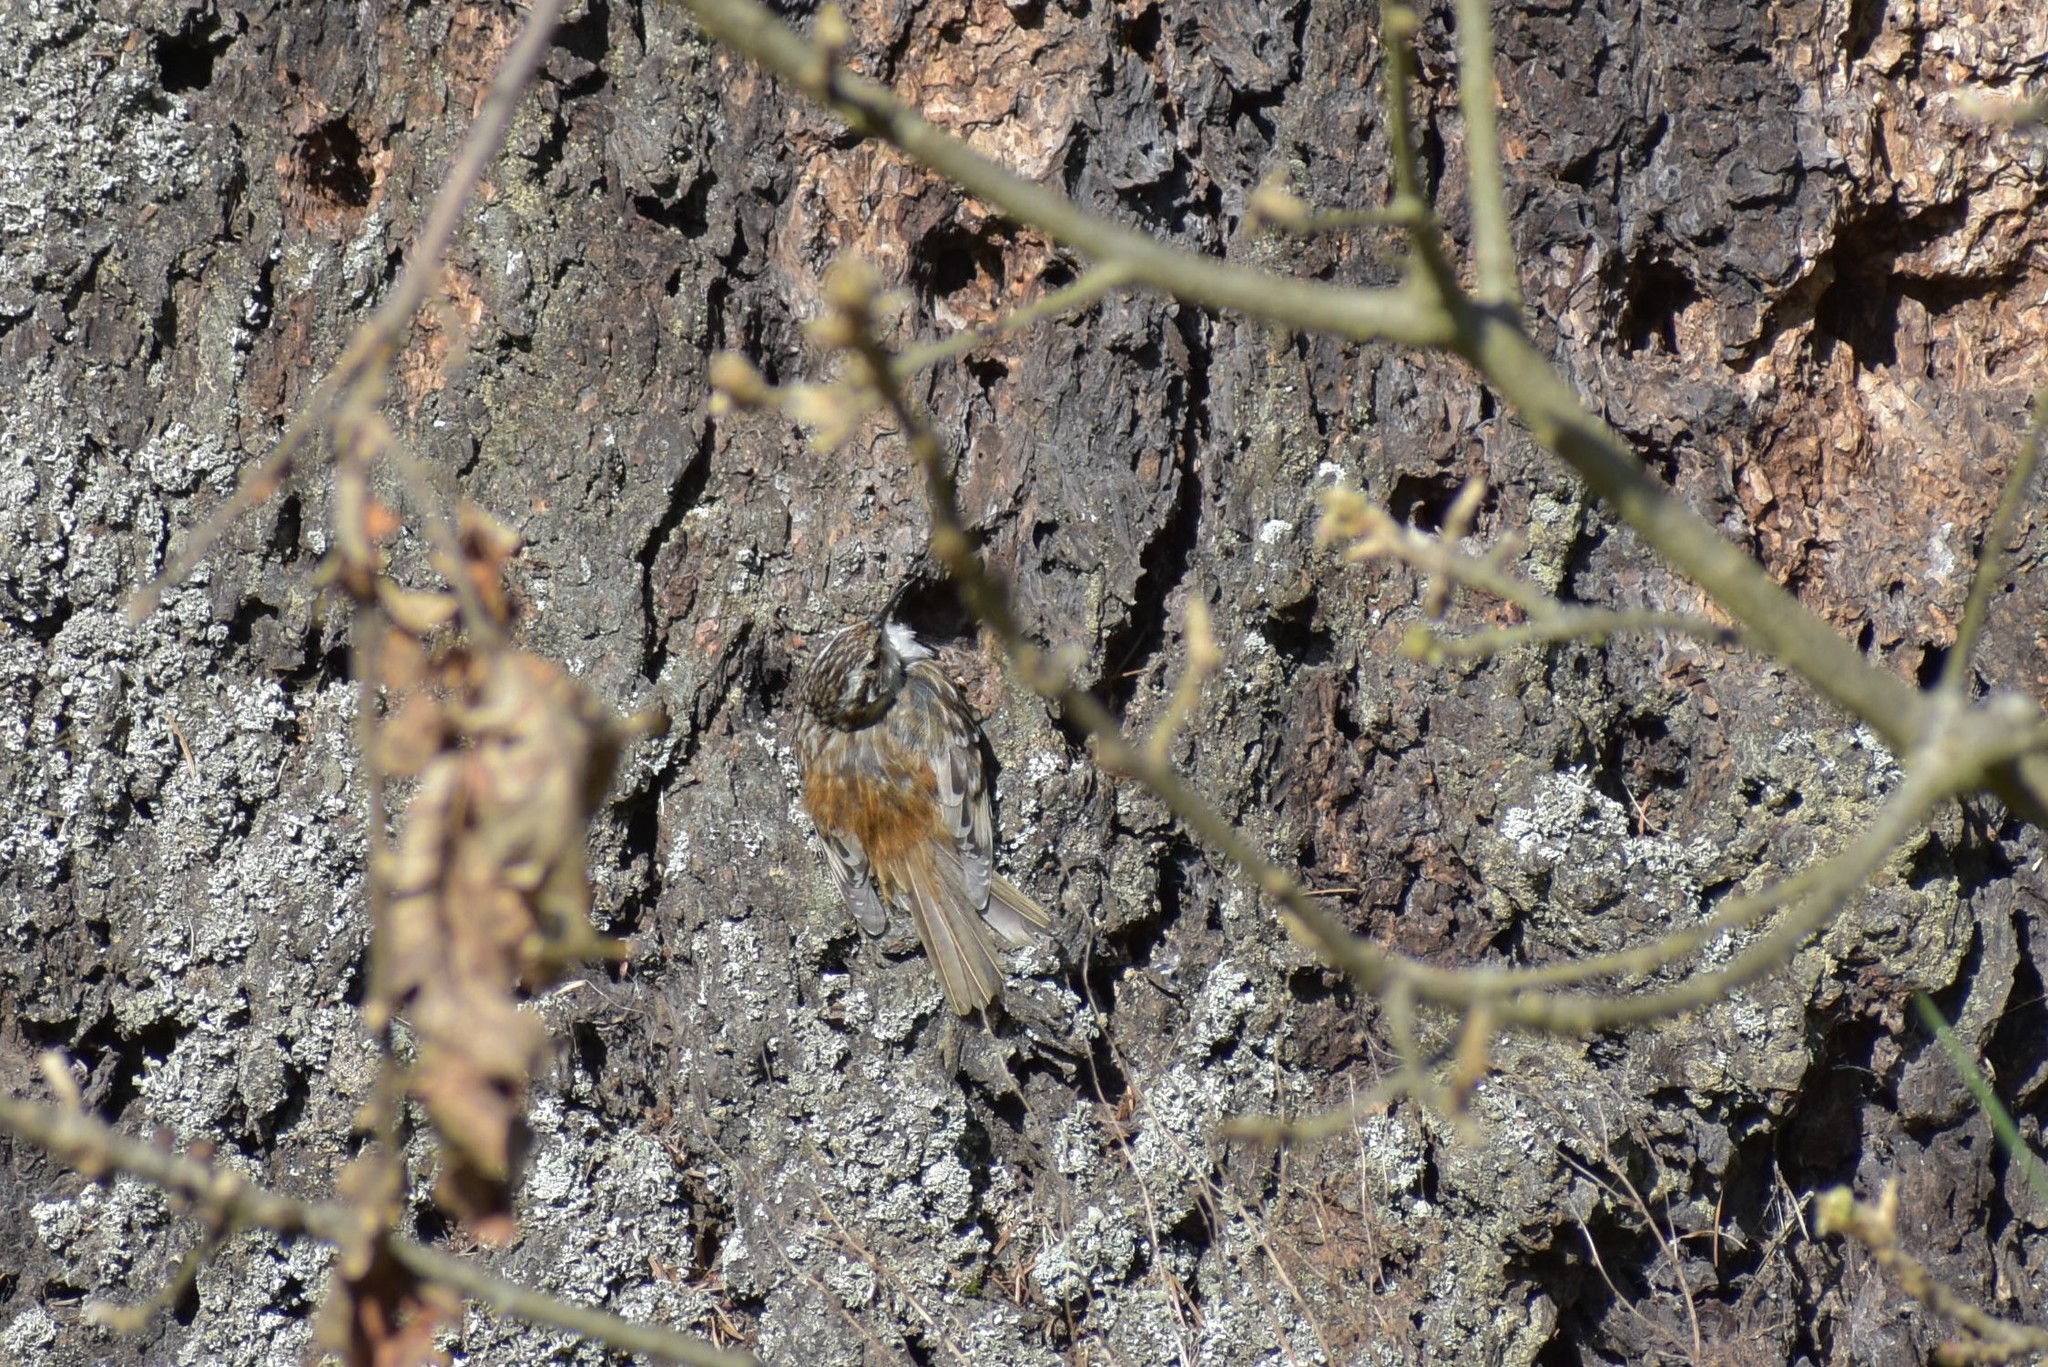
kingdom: Animalia
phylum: Chordata
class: Aves
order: Passeriformes
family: Certhiidae
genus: Certhia
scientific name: Certhia americana
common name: Brown creeper
